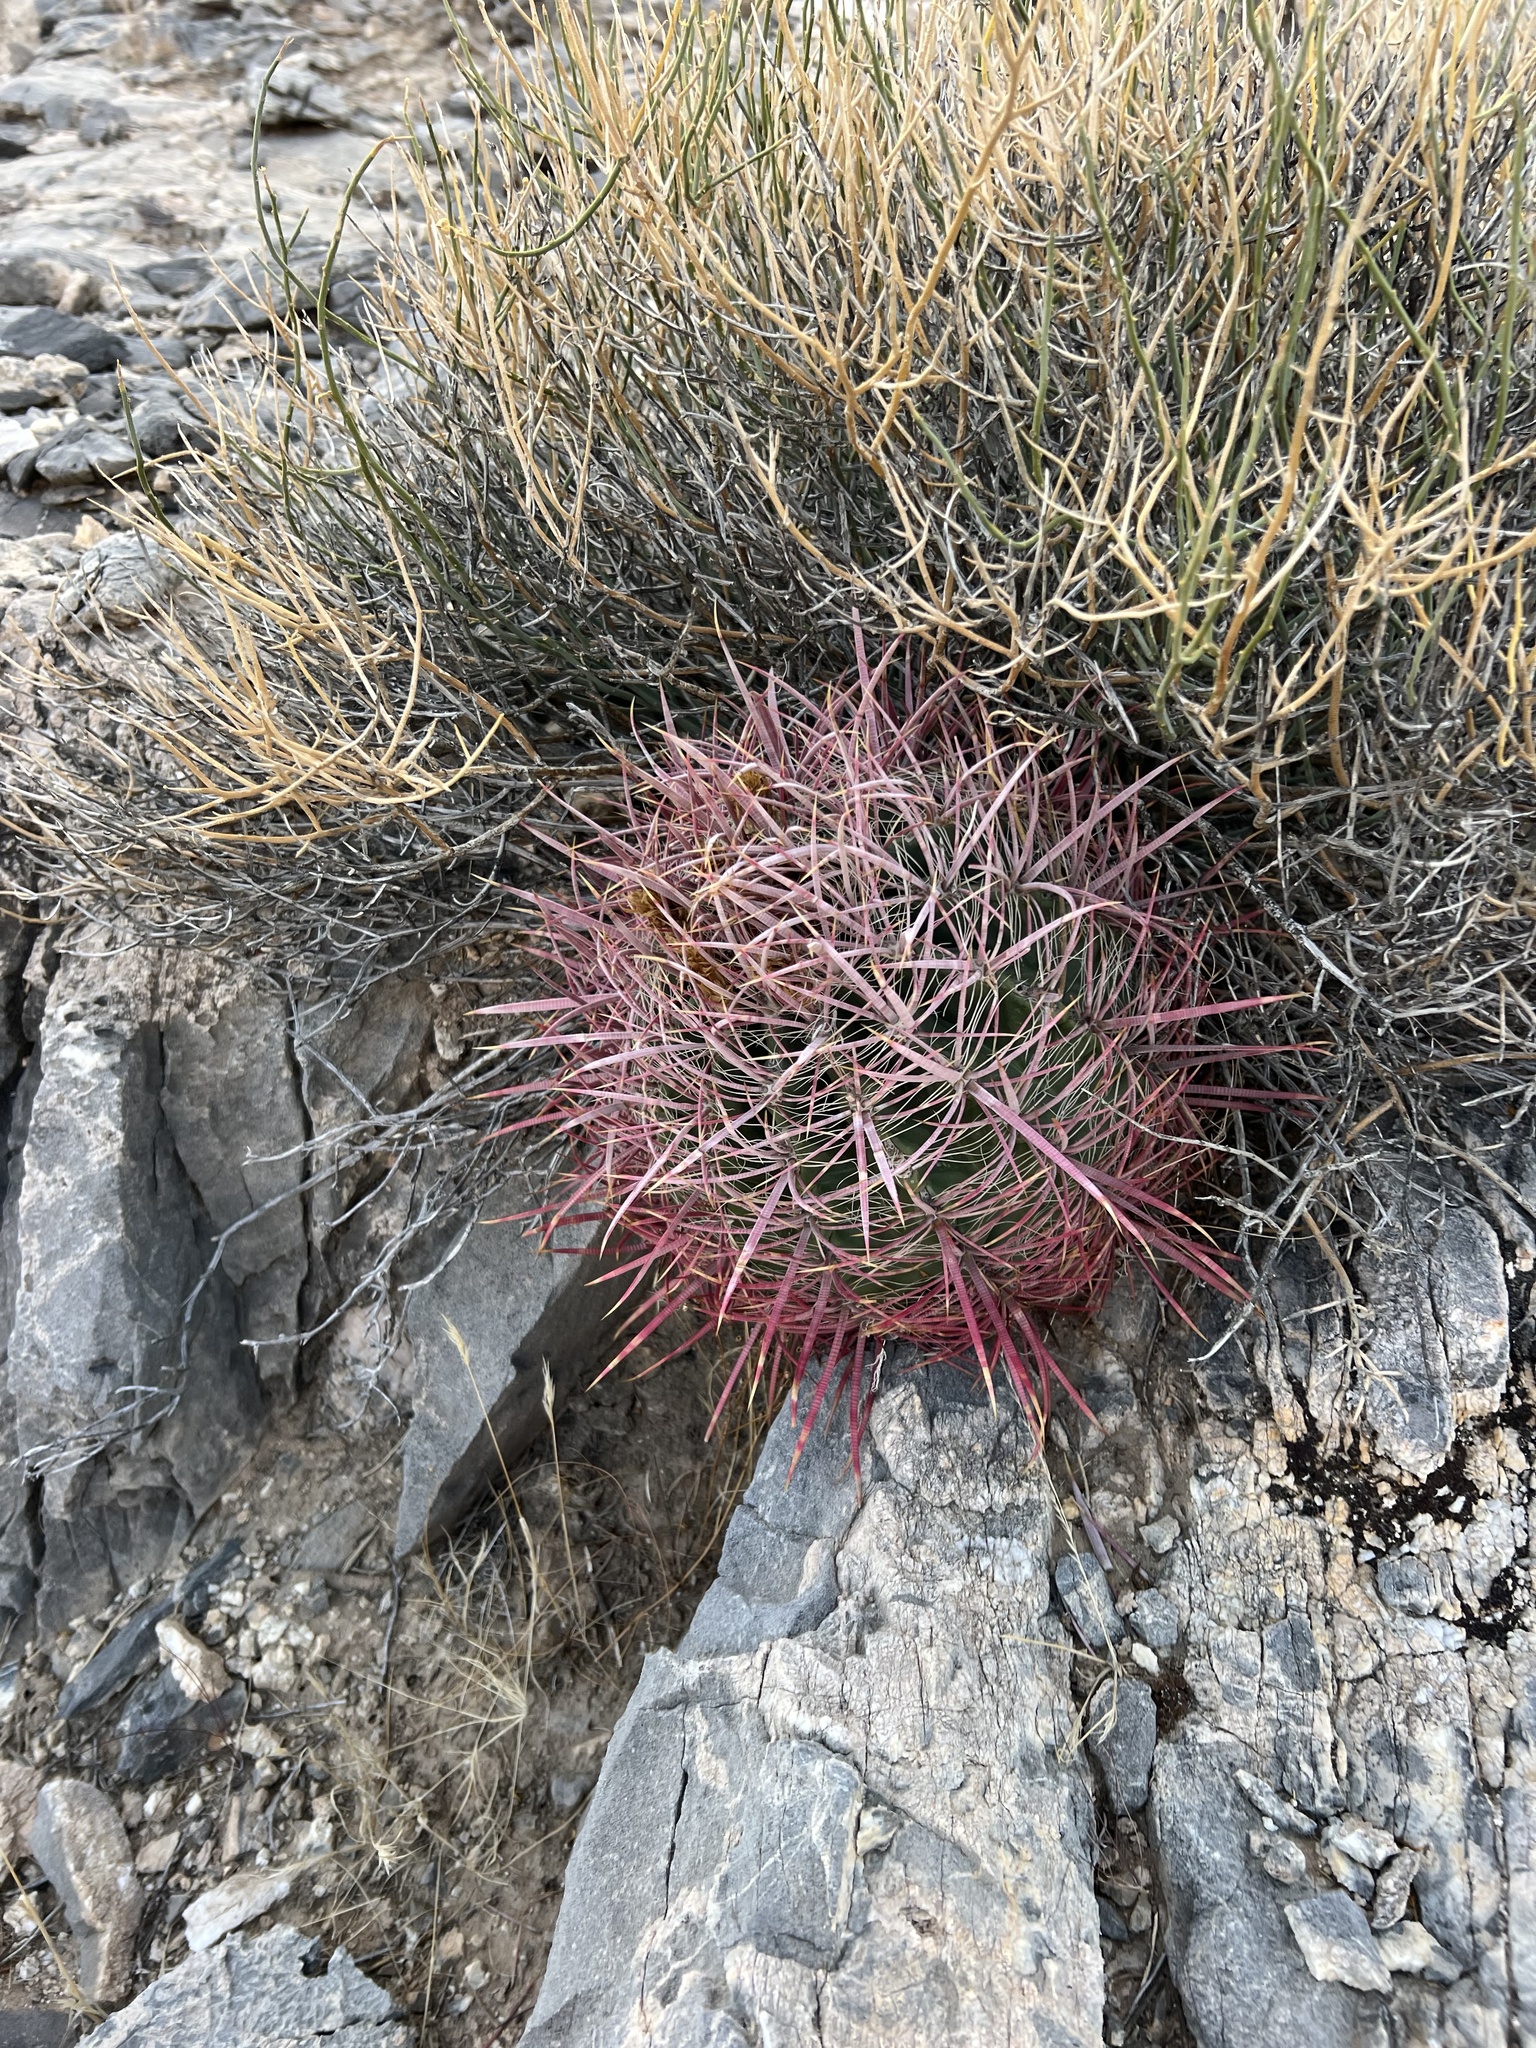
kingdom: Plantae
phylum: Tracheophyta
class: Magnoliopsida
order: Caryophyllales
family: Cactaceae
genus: Ferocactus
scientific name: Ferocactus cylindraceus
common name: California barrel cactus
